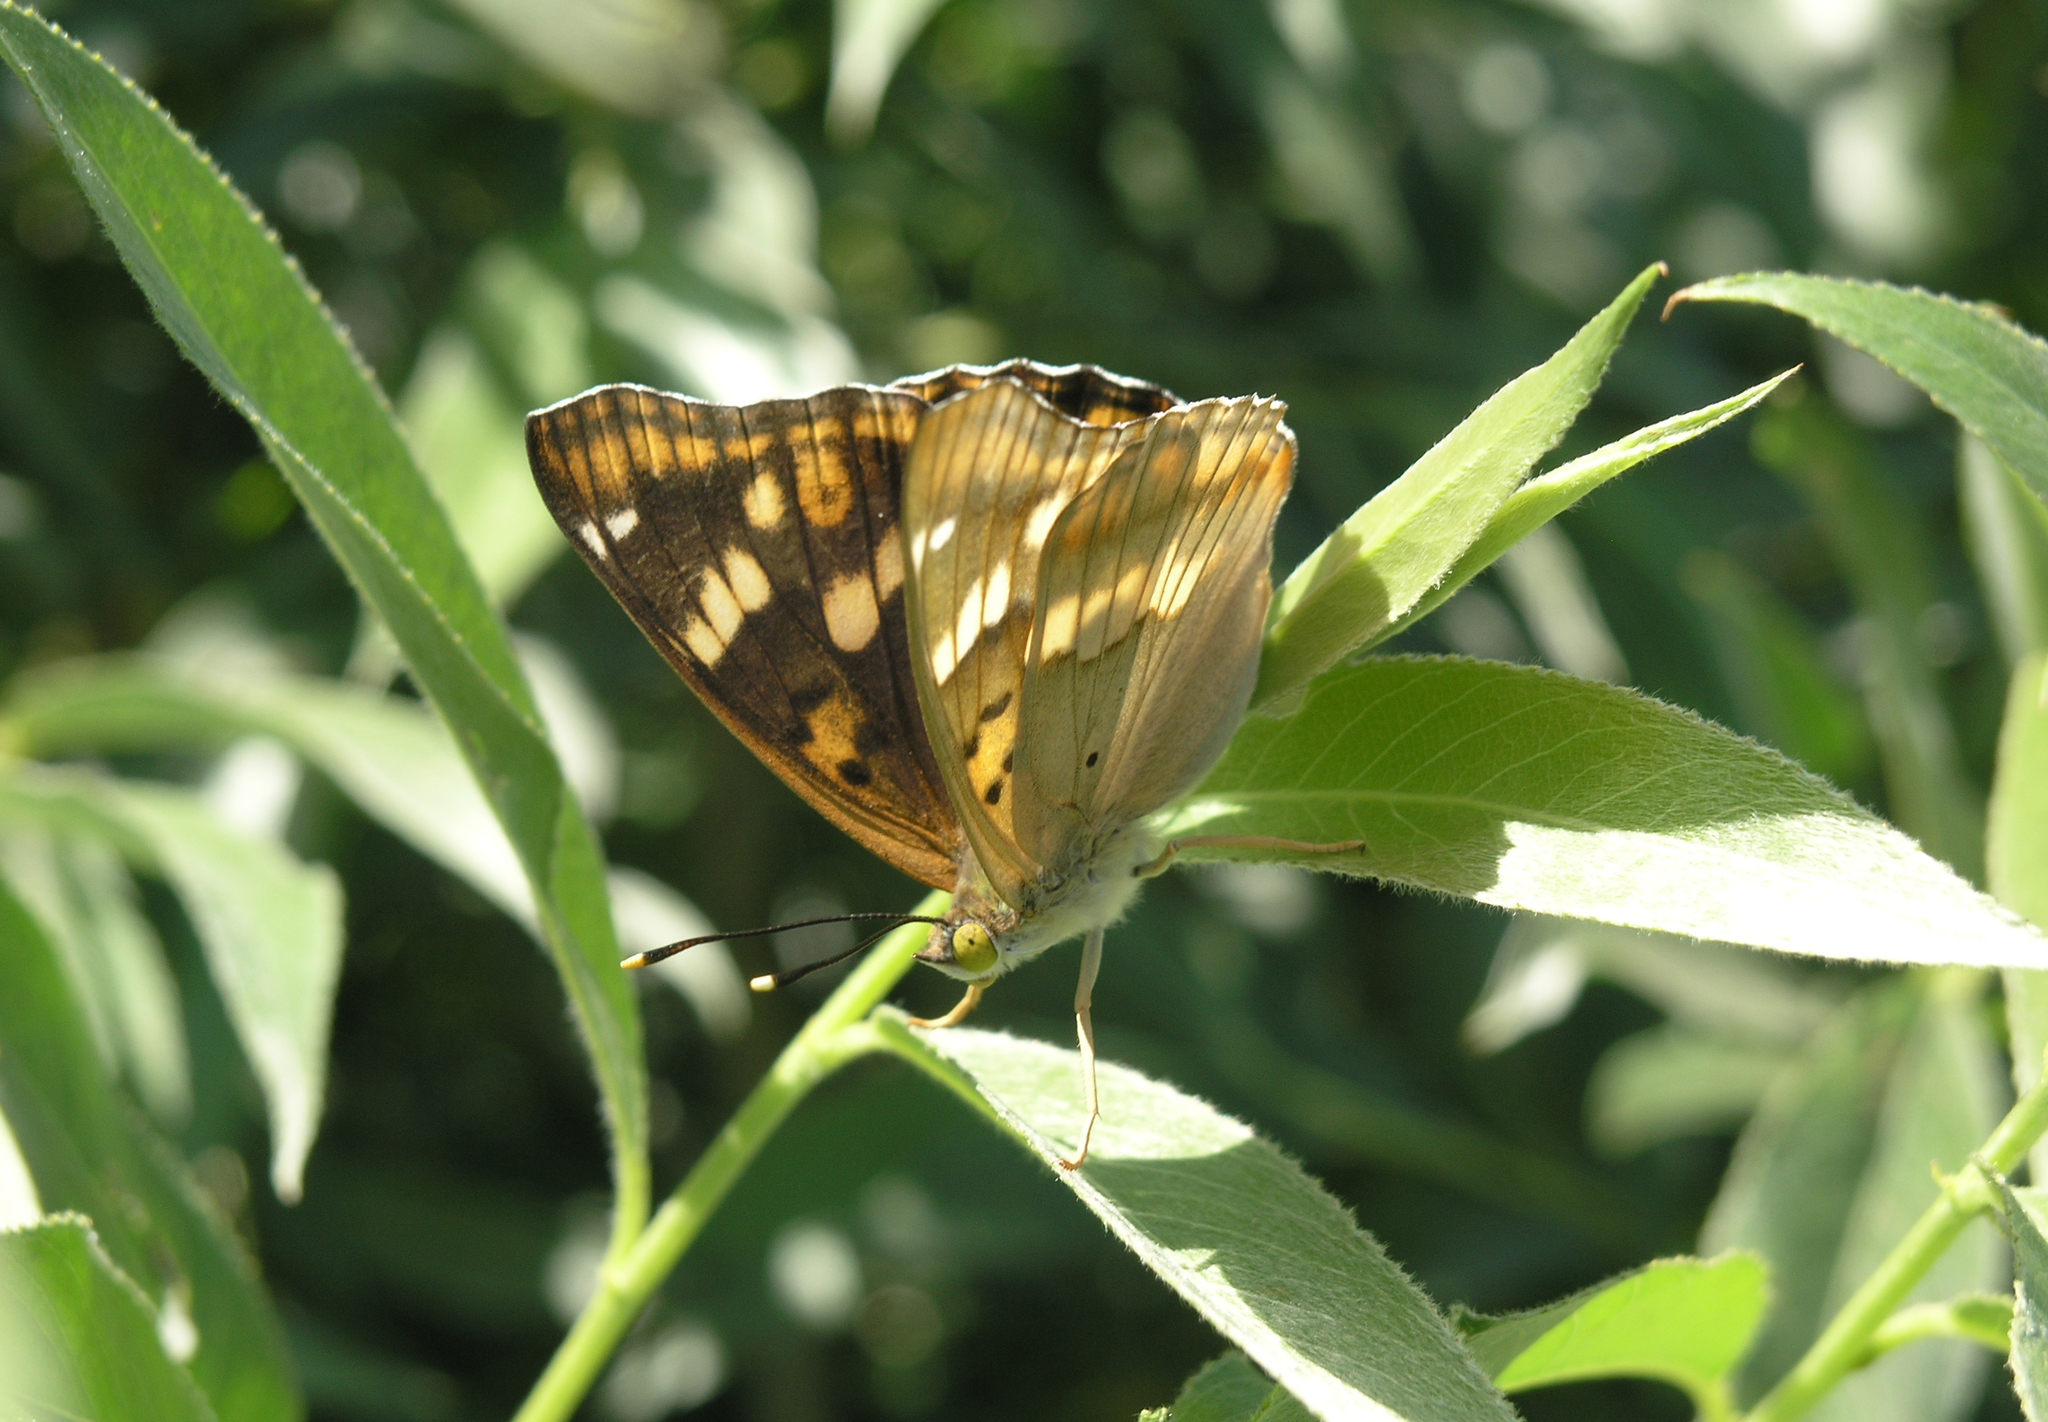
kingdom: Animalia
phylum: Arthropoda
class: Insecta
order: Lepidoptera
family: Nymphalidae
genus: Apatura
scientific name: Apatura ilia
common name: Lesser purple emperor
